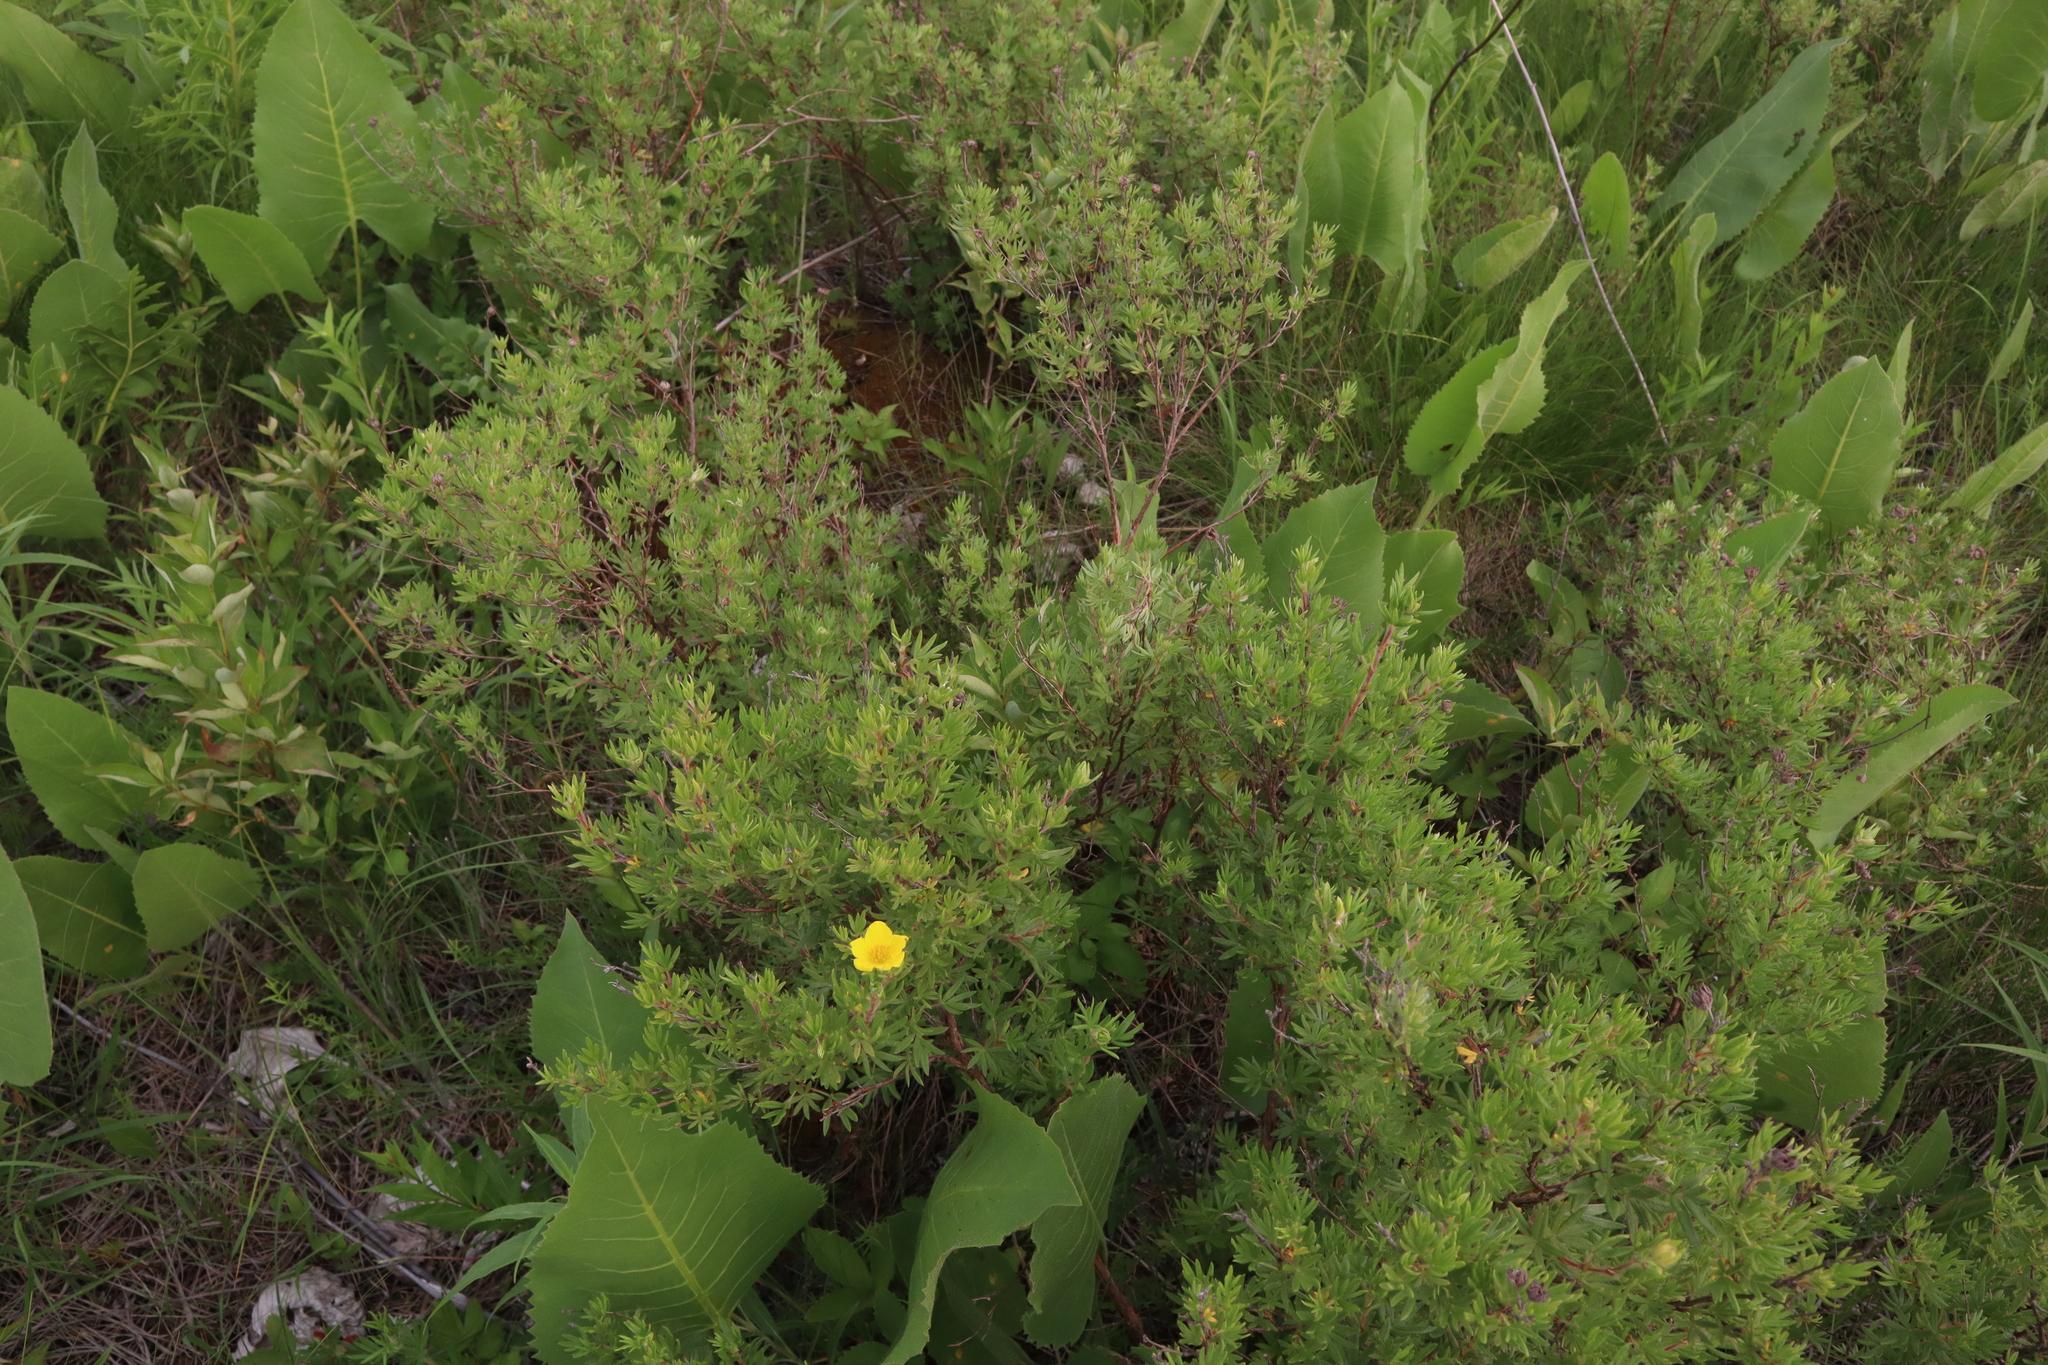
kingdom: Plantae
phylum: Tracheophyta
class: Magnoliopsida
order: Rosales
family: Rosaceae
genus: Dasiphora
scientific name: Dasiphora fruticosa
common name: Shrubby cinquefoil
